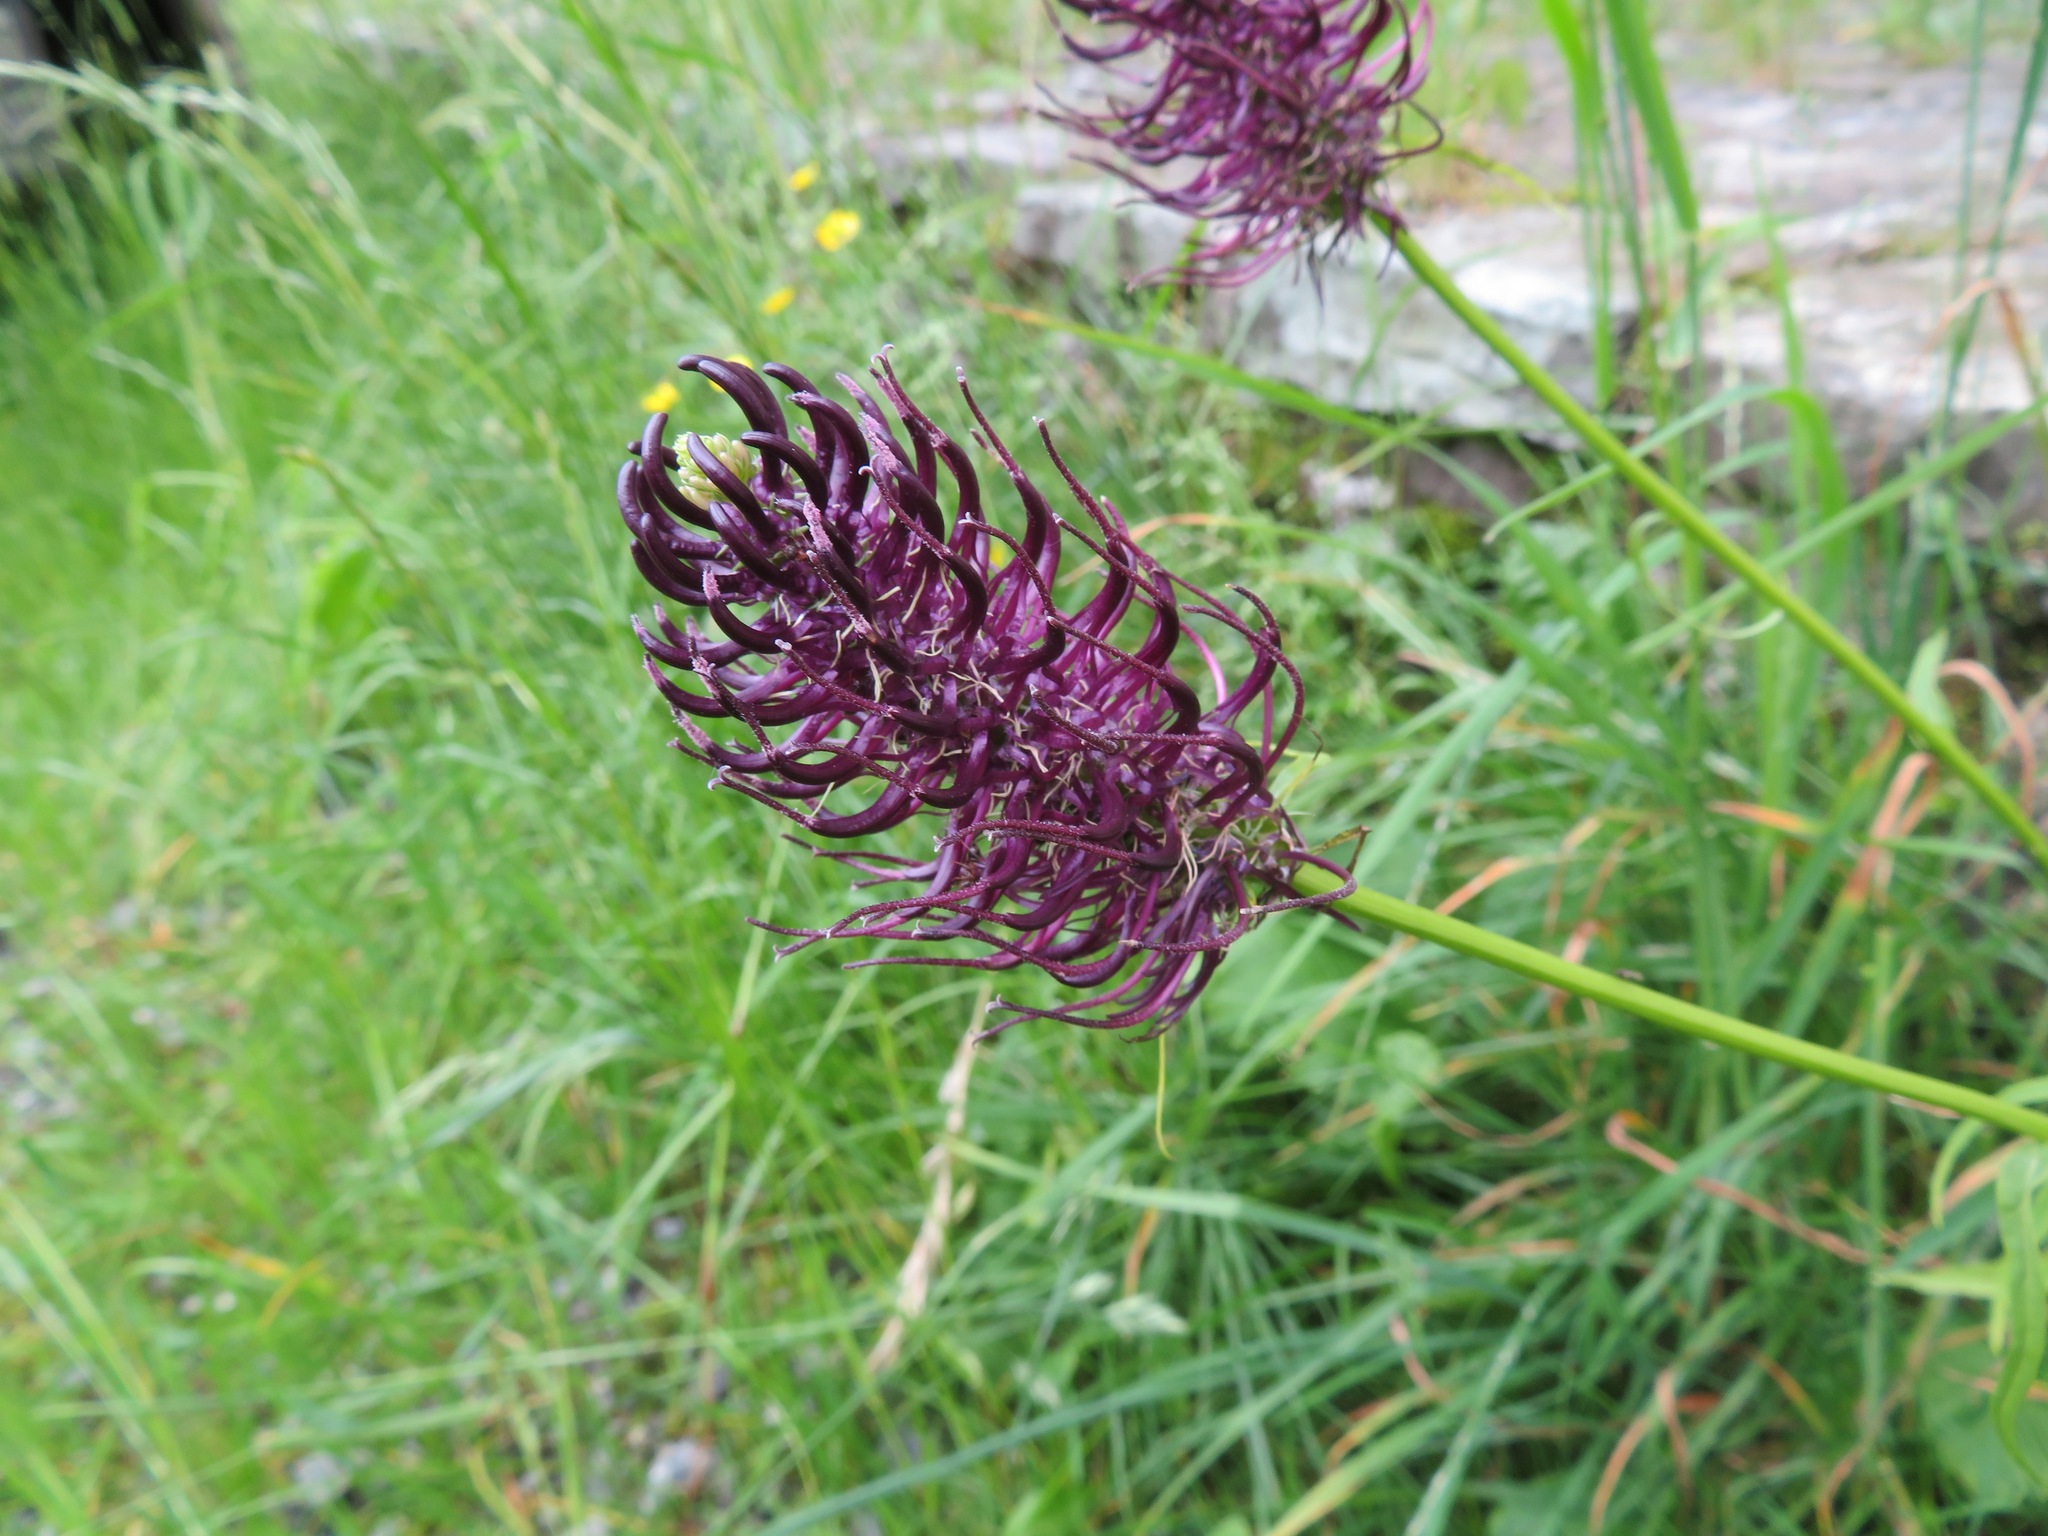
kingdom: Plantae
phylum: Tracheophyta
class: Magnoliopsida
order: Asterales
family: Campanulaceae
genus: Phyteuma
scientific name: Phyteuma ovatum
